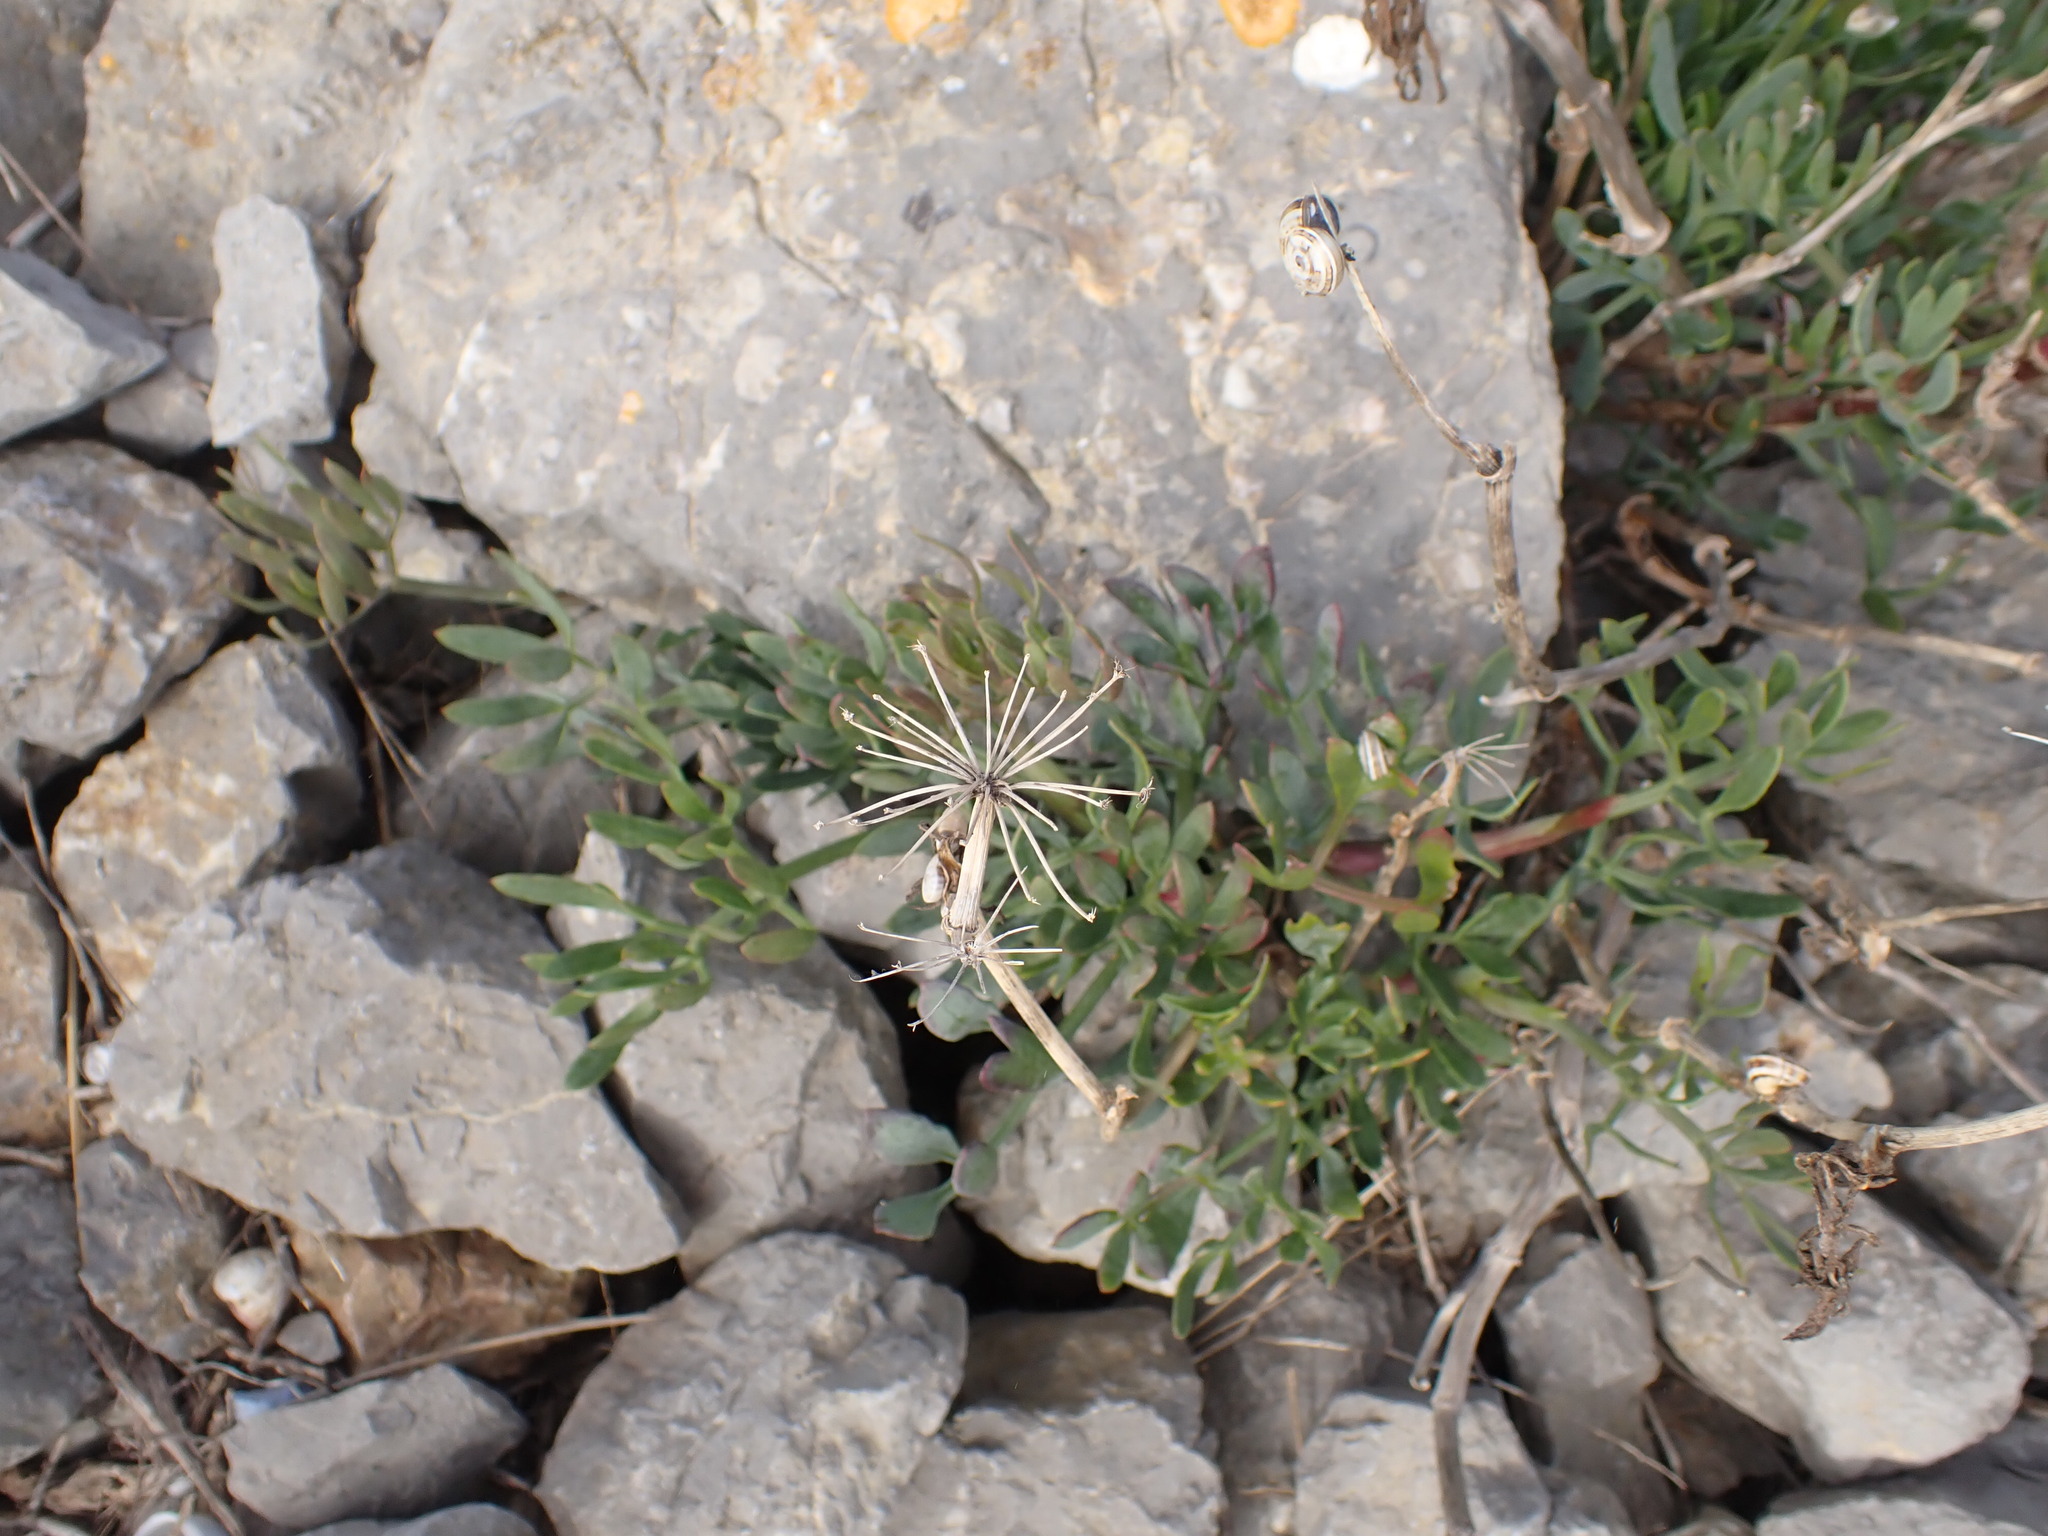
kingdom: Plantae
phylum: Tracheophyta
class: Magnoliopsida
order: Apiales
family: Apiaceae
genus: Crithmum
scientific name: Crithmum maritimum
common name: Rock samphire
